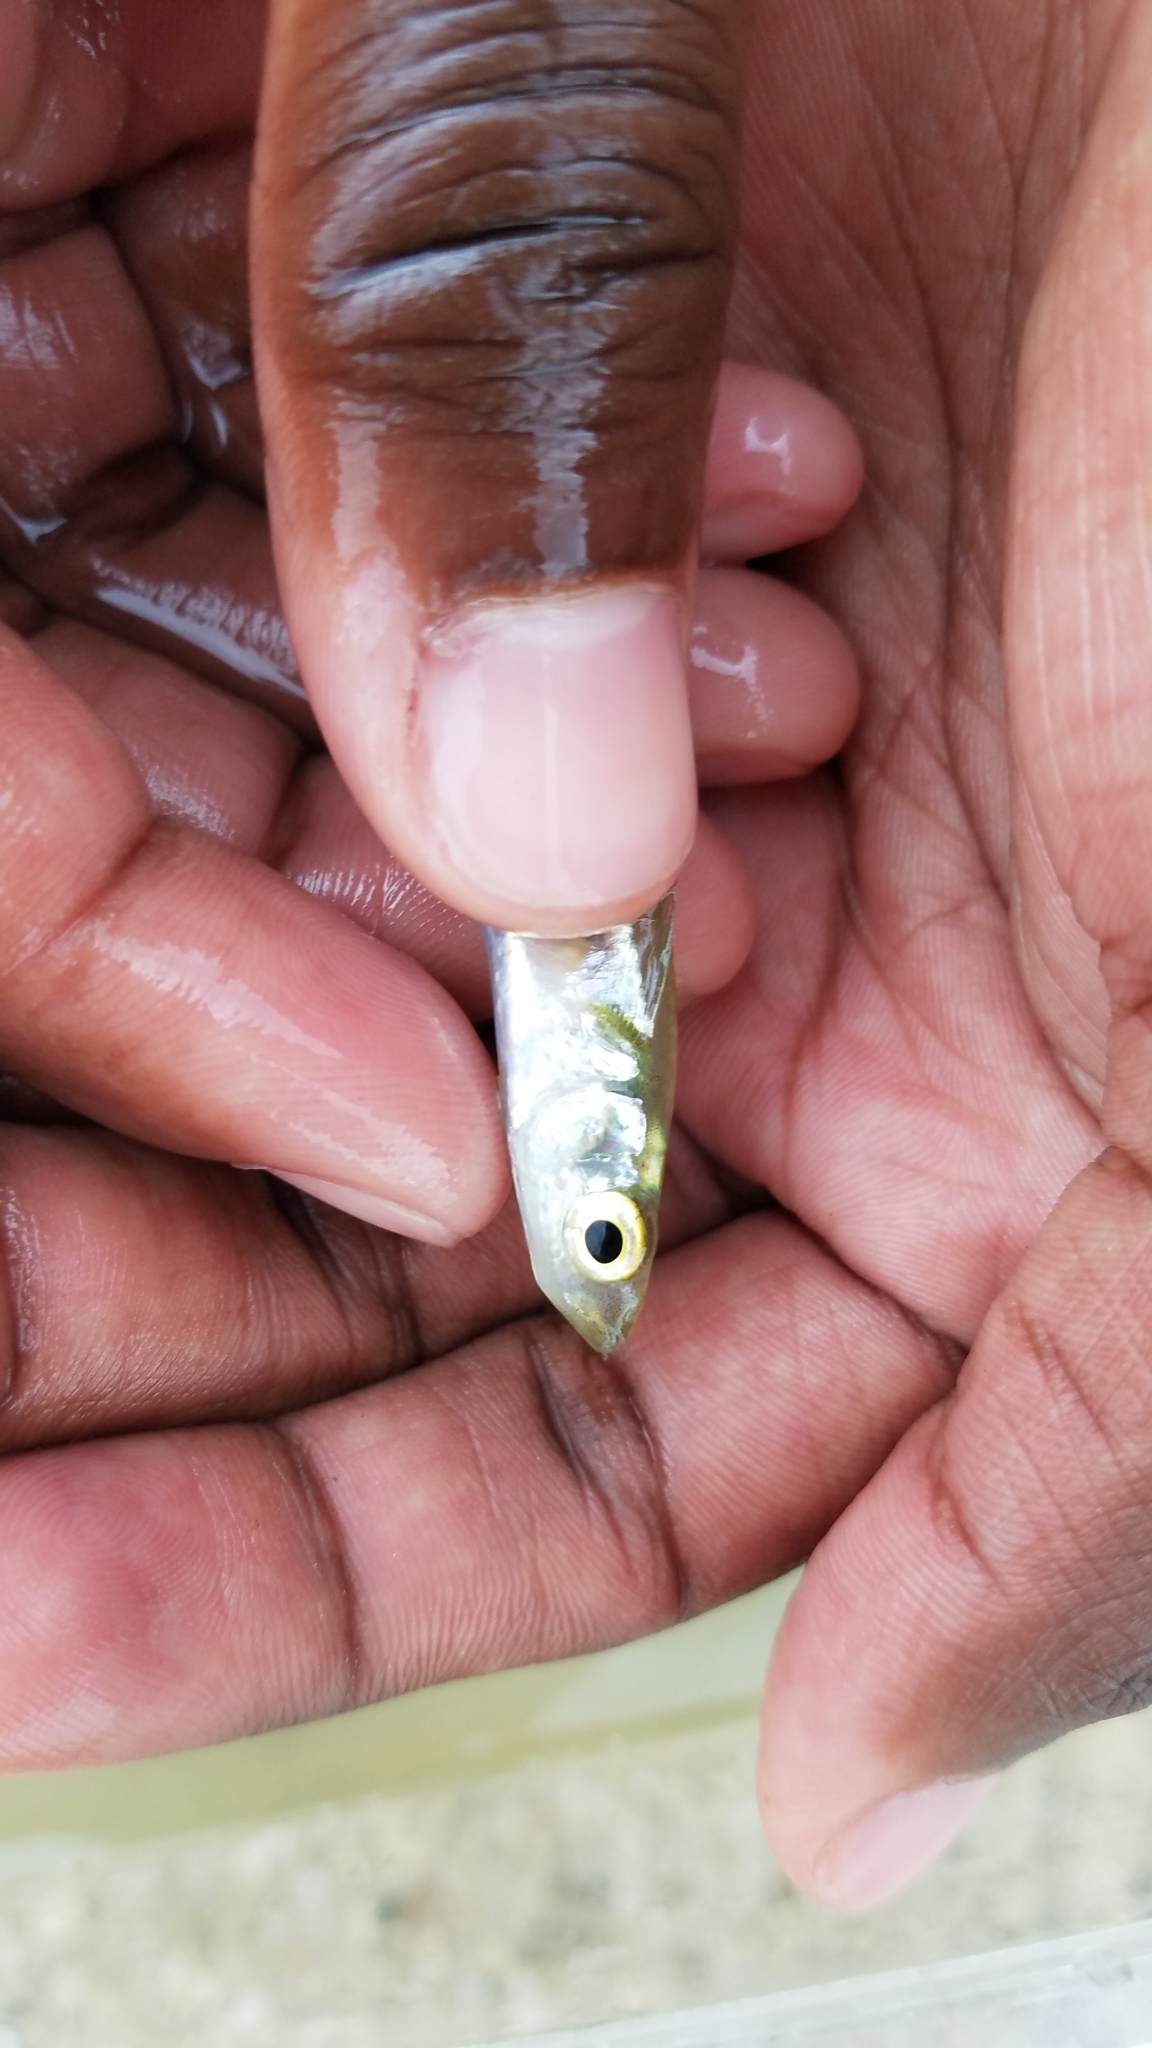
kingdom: Animalia
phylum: Chordata
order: Atheriniformes
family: Atherinopsidae
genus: Menidia
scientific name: Menidia menidia
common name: Atlantic silverside
